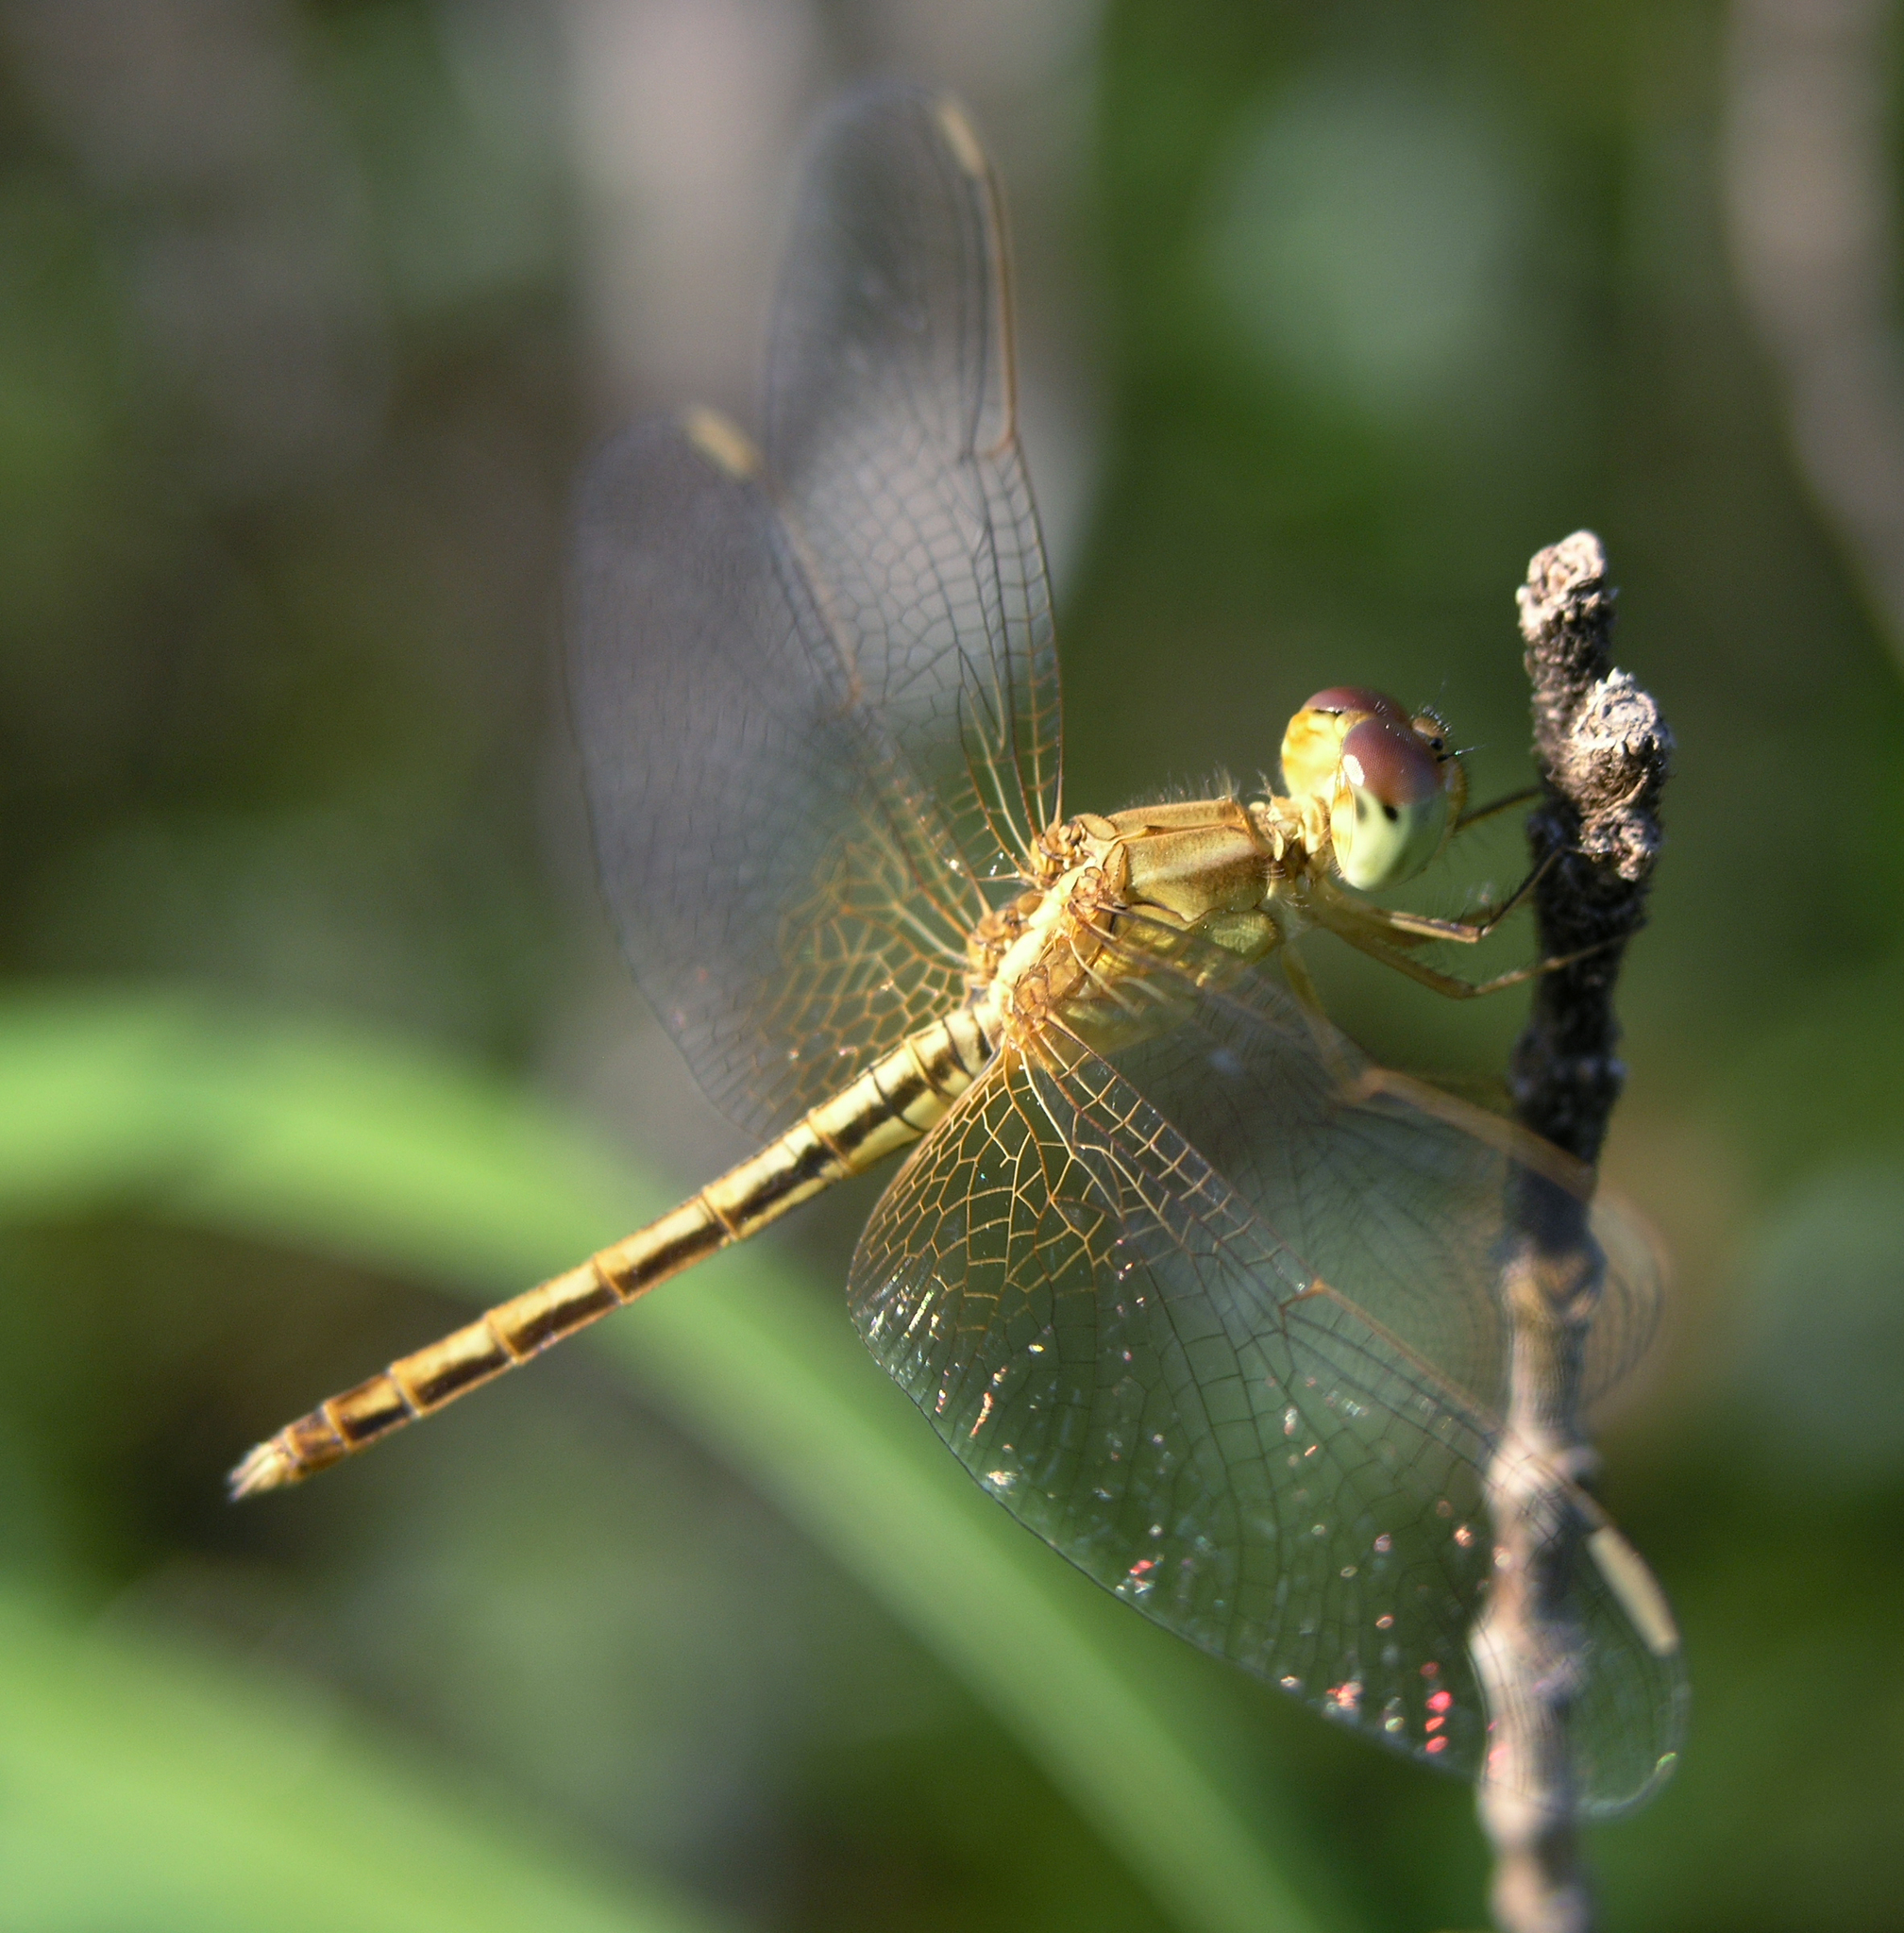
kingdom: Animalia
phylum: Arthropoda
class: Insecta
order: Odonata
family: Libellulidae
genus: Neurothemis
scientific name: Neurothemis intermedia
